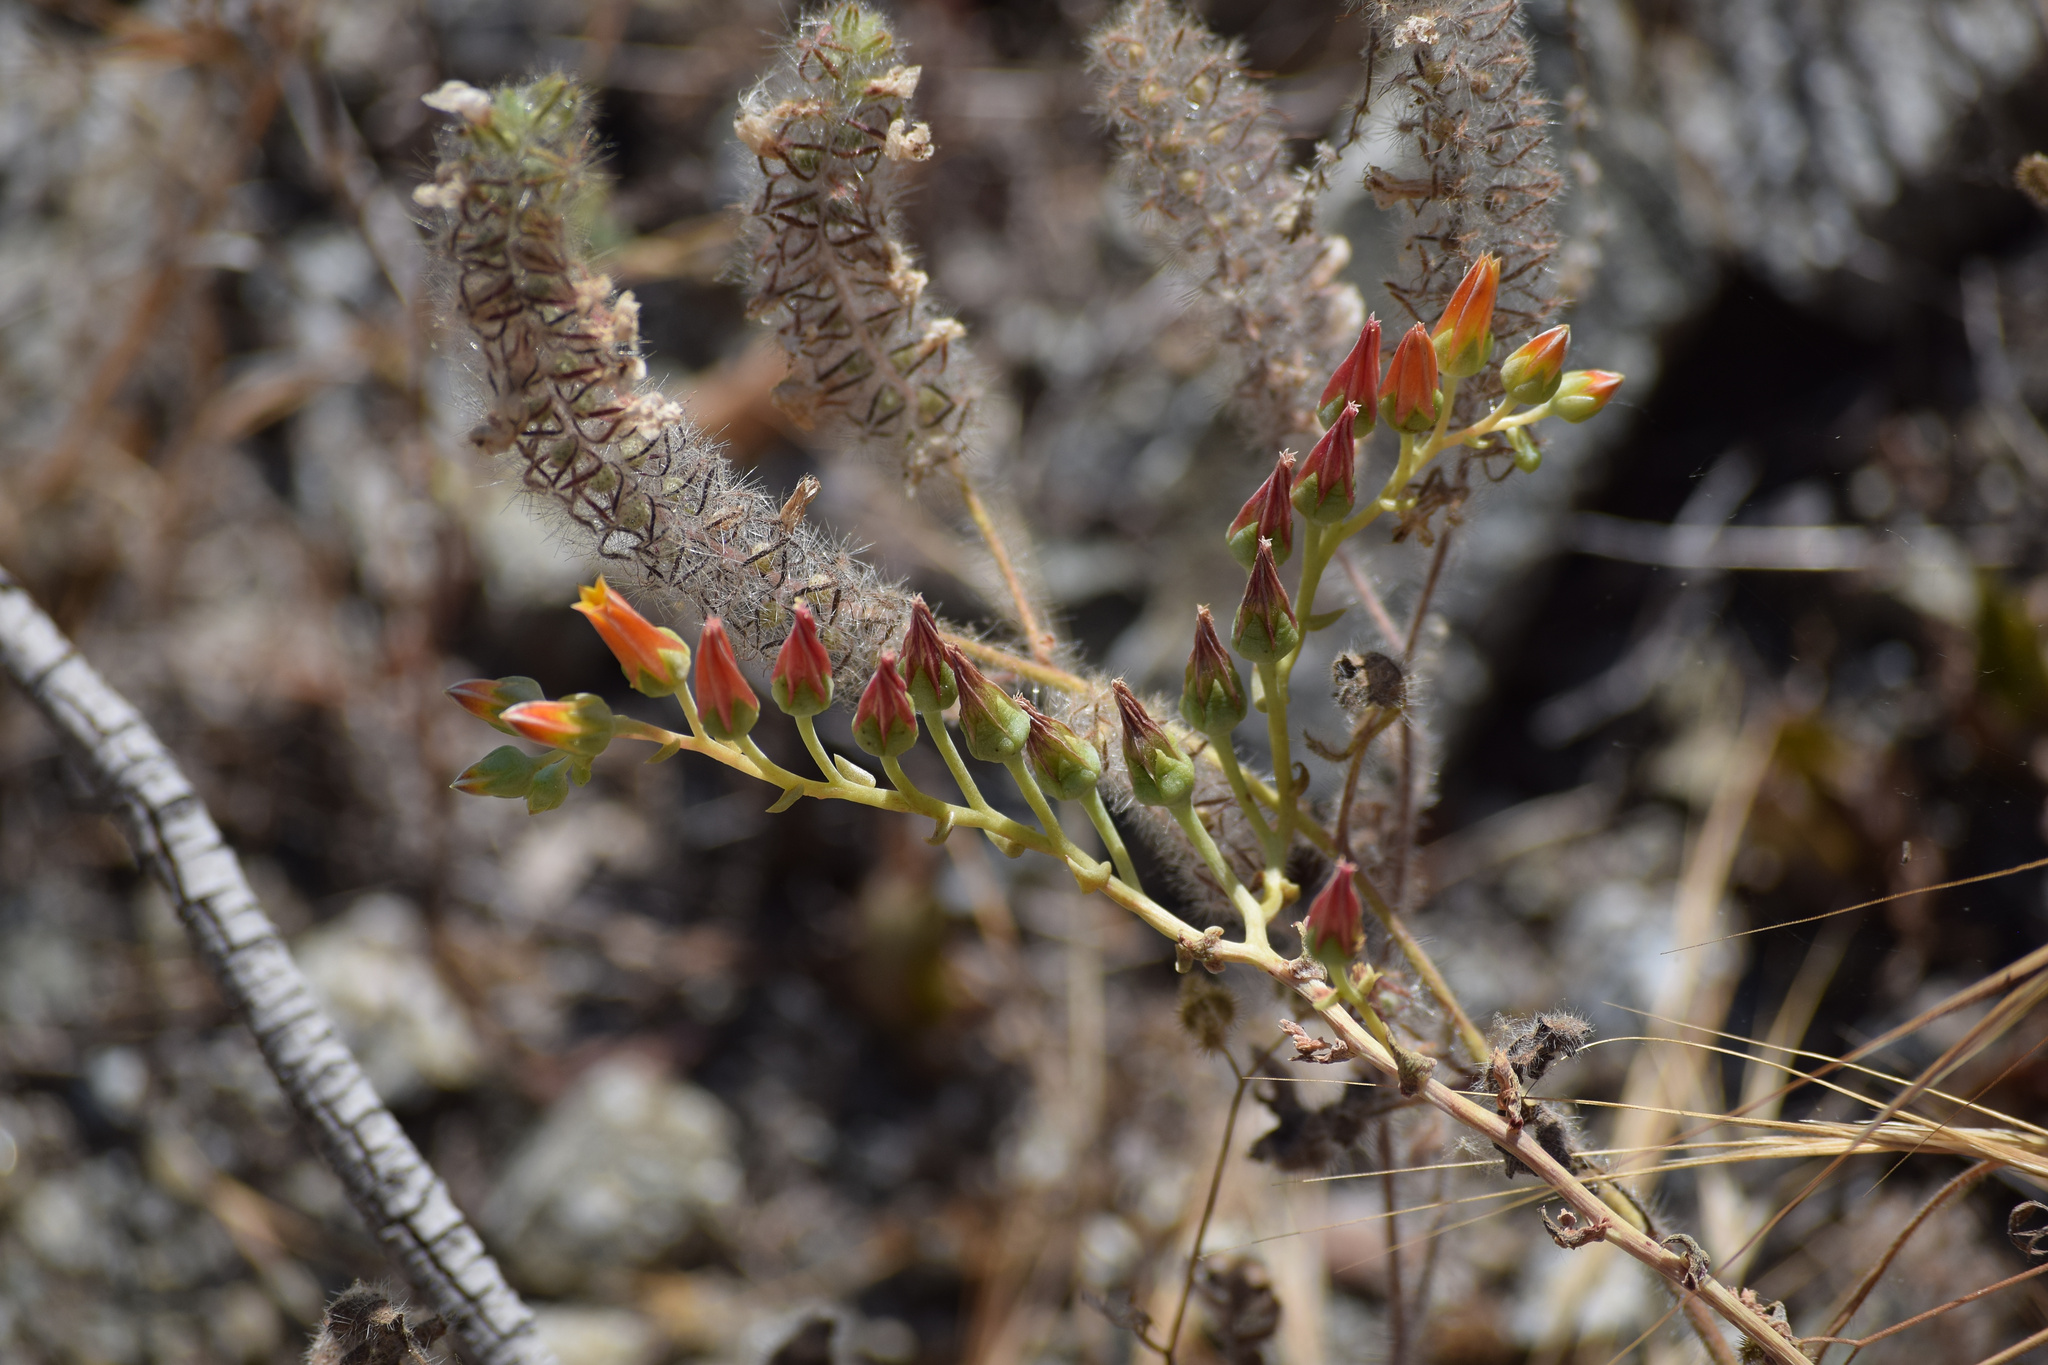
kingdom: Plantae
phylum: Tracheophyta
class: Magnoliopsida
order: Saxifragales
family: Crassulaceae
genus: Dudleya
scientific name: Dudleya lanceolata
